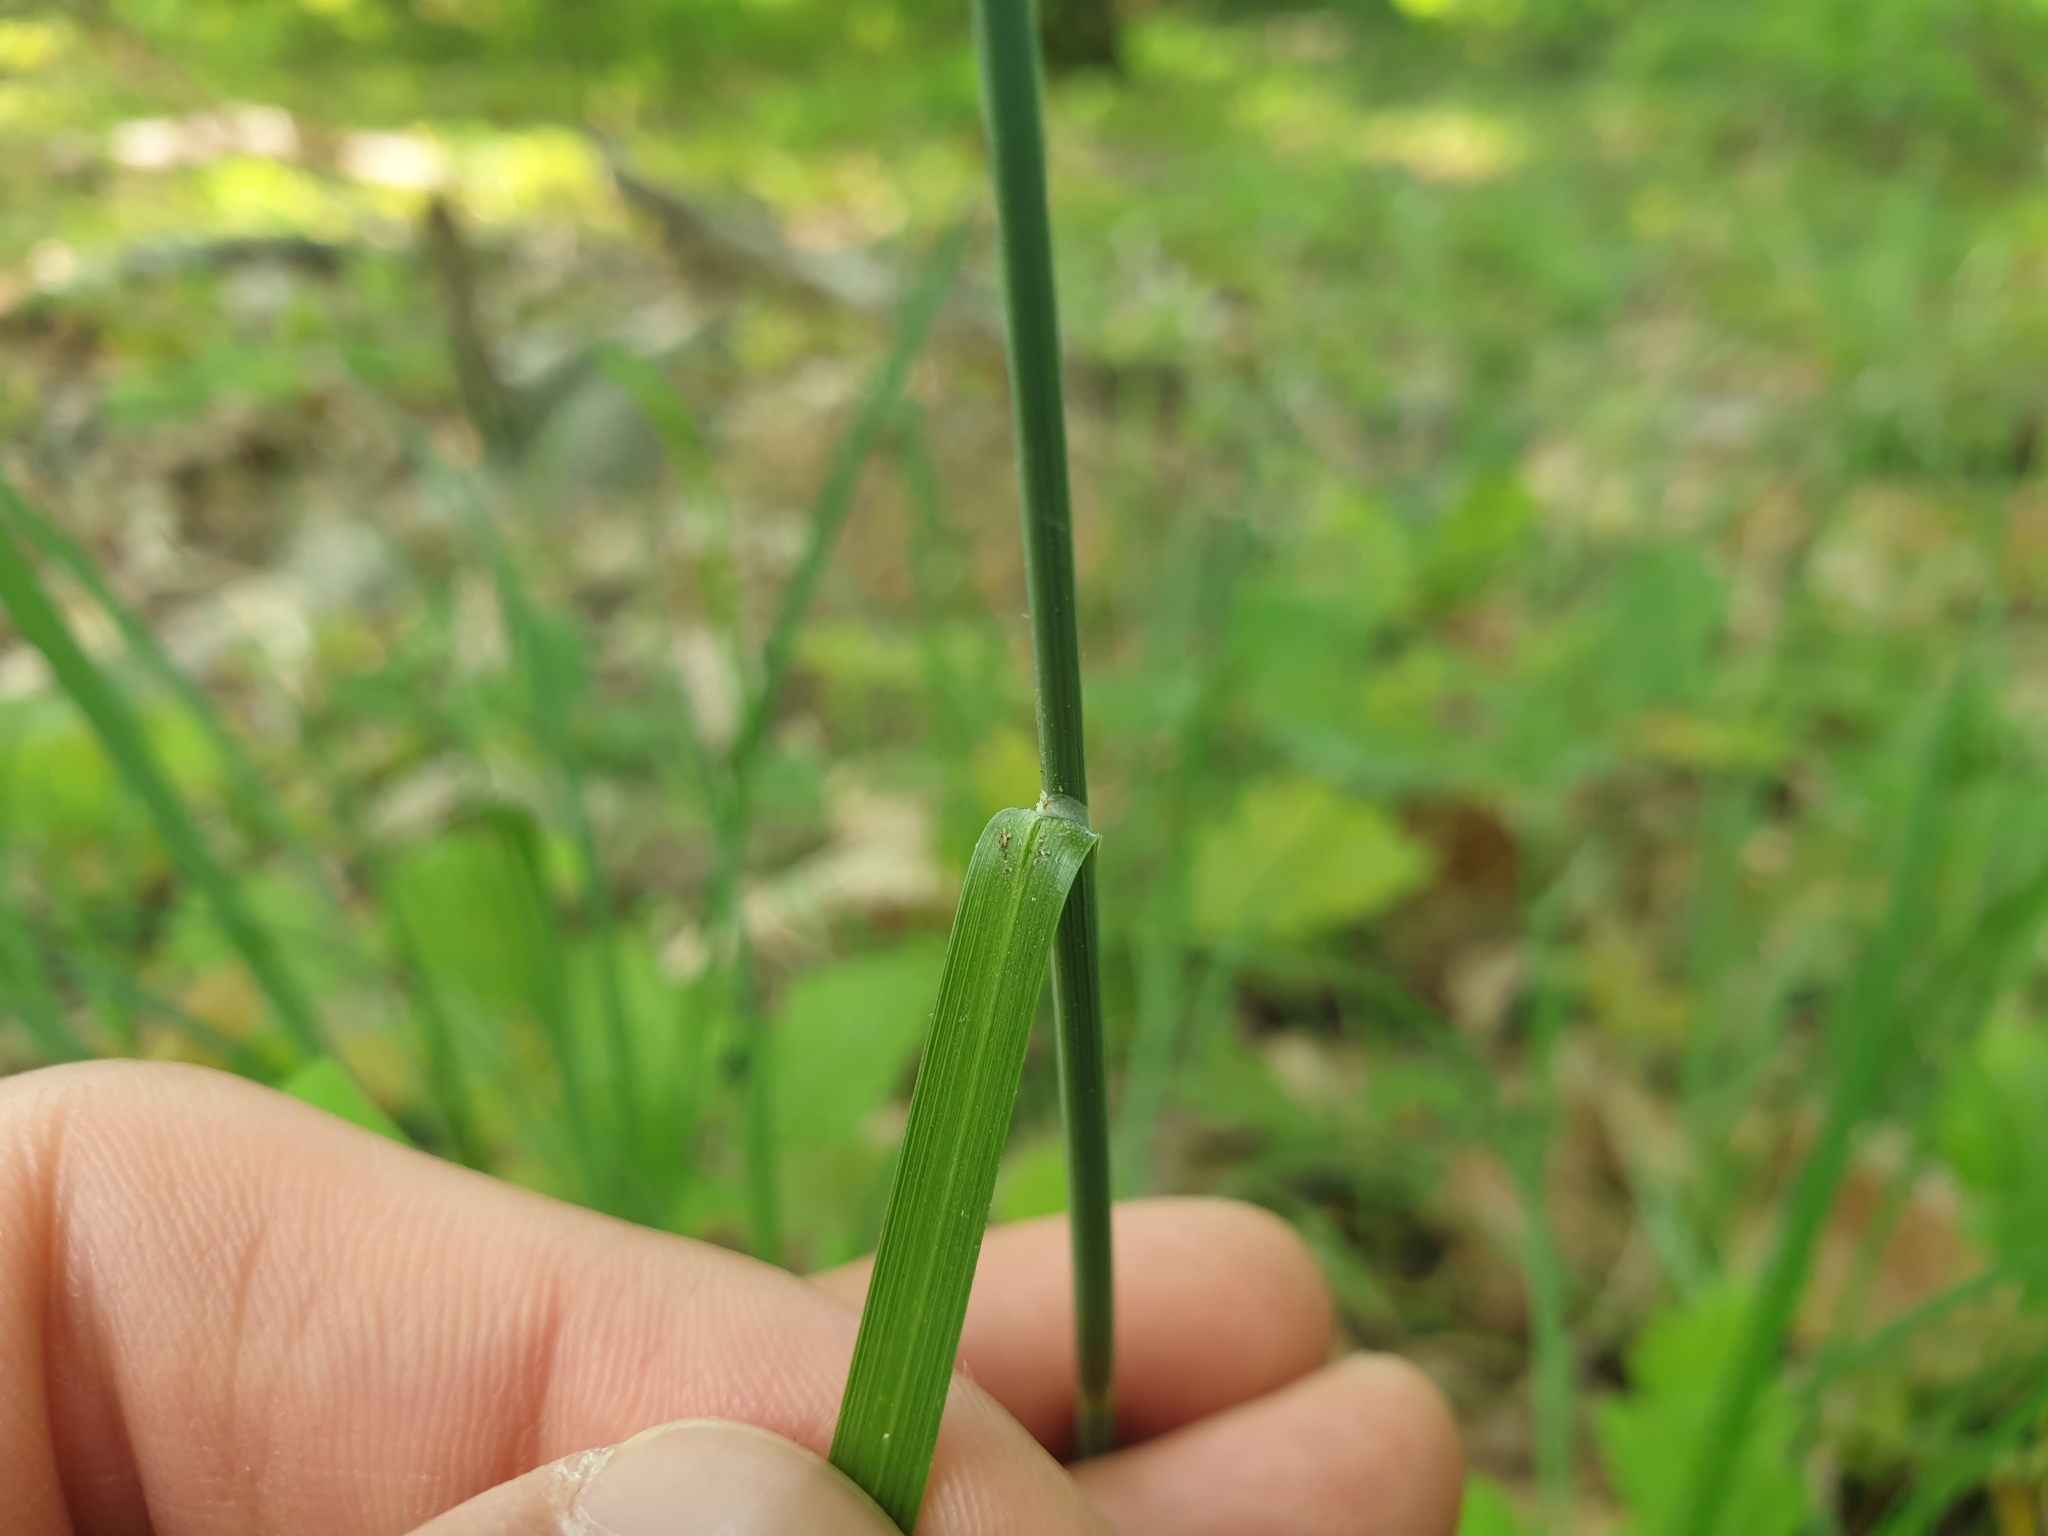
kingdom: Plantae
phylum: Tracheophyta
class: Liliopsida
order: Poales
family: Cyperaceae
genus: Carex
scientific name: Carex flacca
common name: Glaucous sedge
